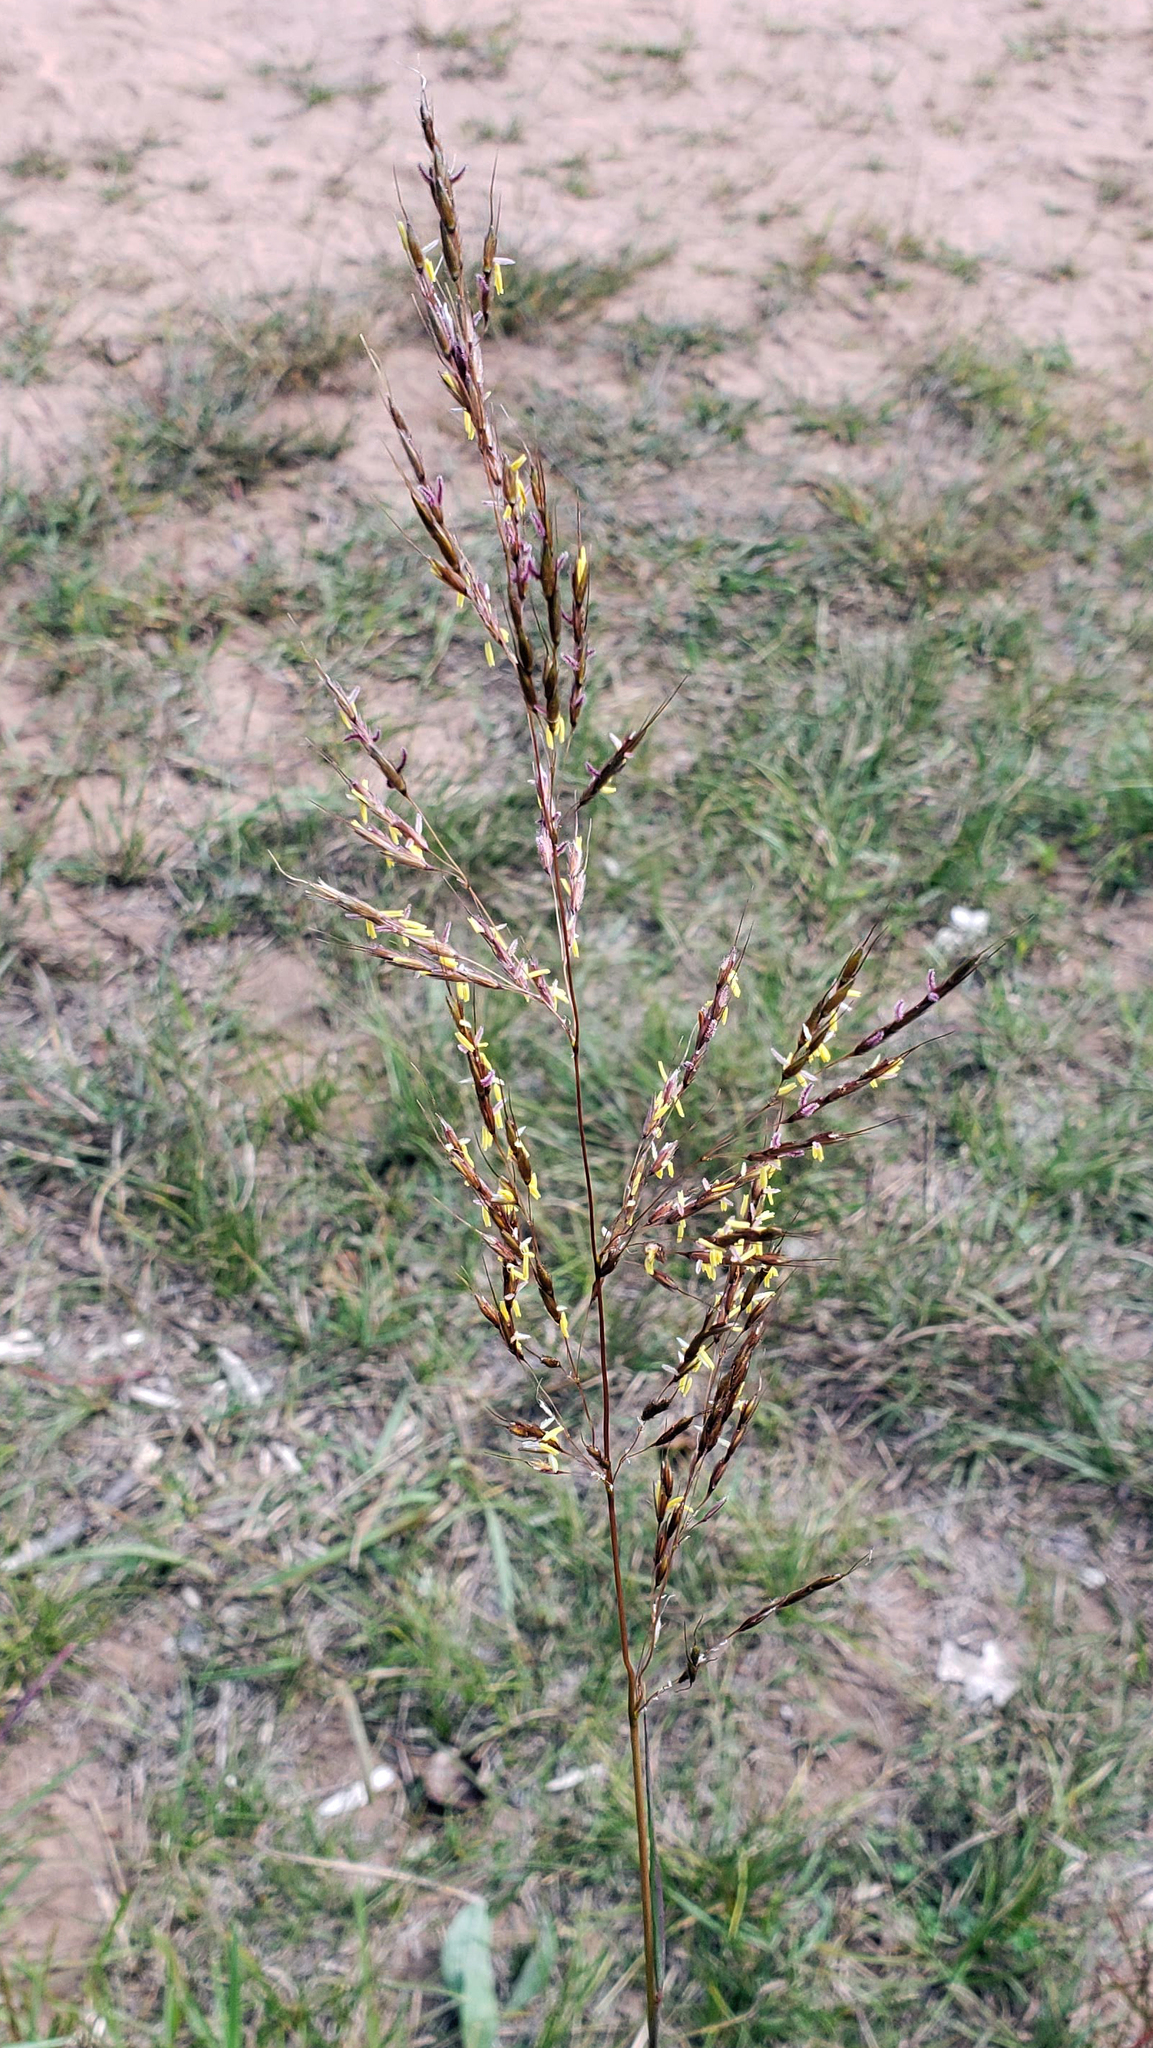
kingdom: Plantae
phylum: Tracheophyta
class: Liliopsida
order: Poales
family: Poaceae
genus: Sorghastrum
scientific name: Sorghastrum nutans
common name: Indian grass
